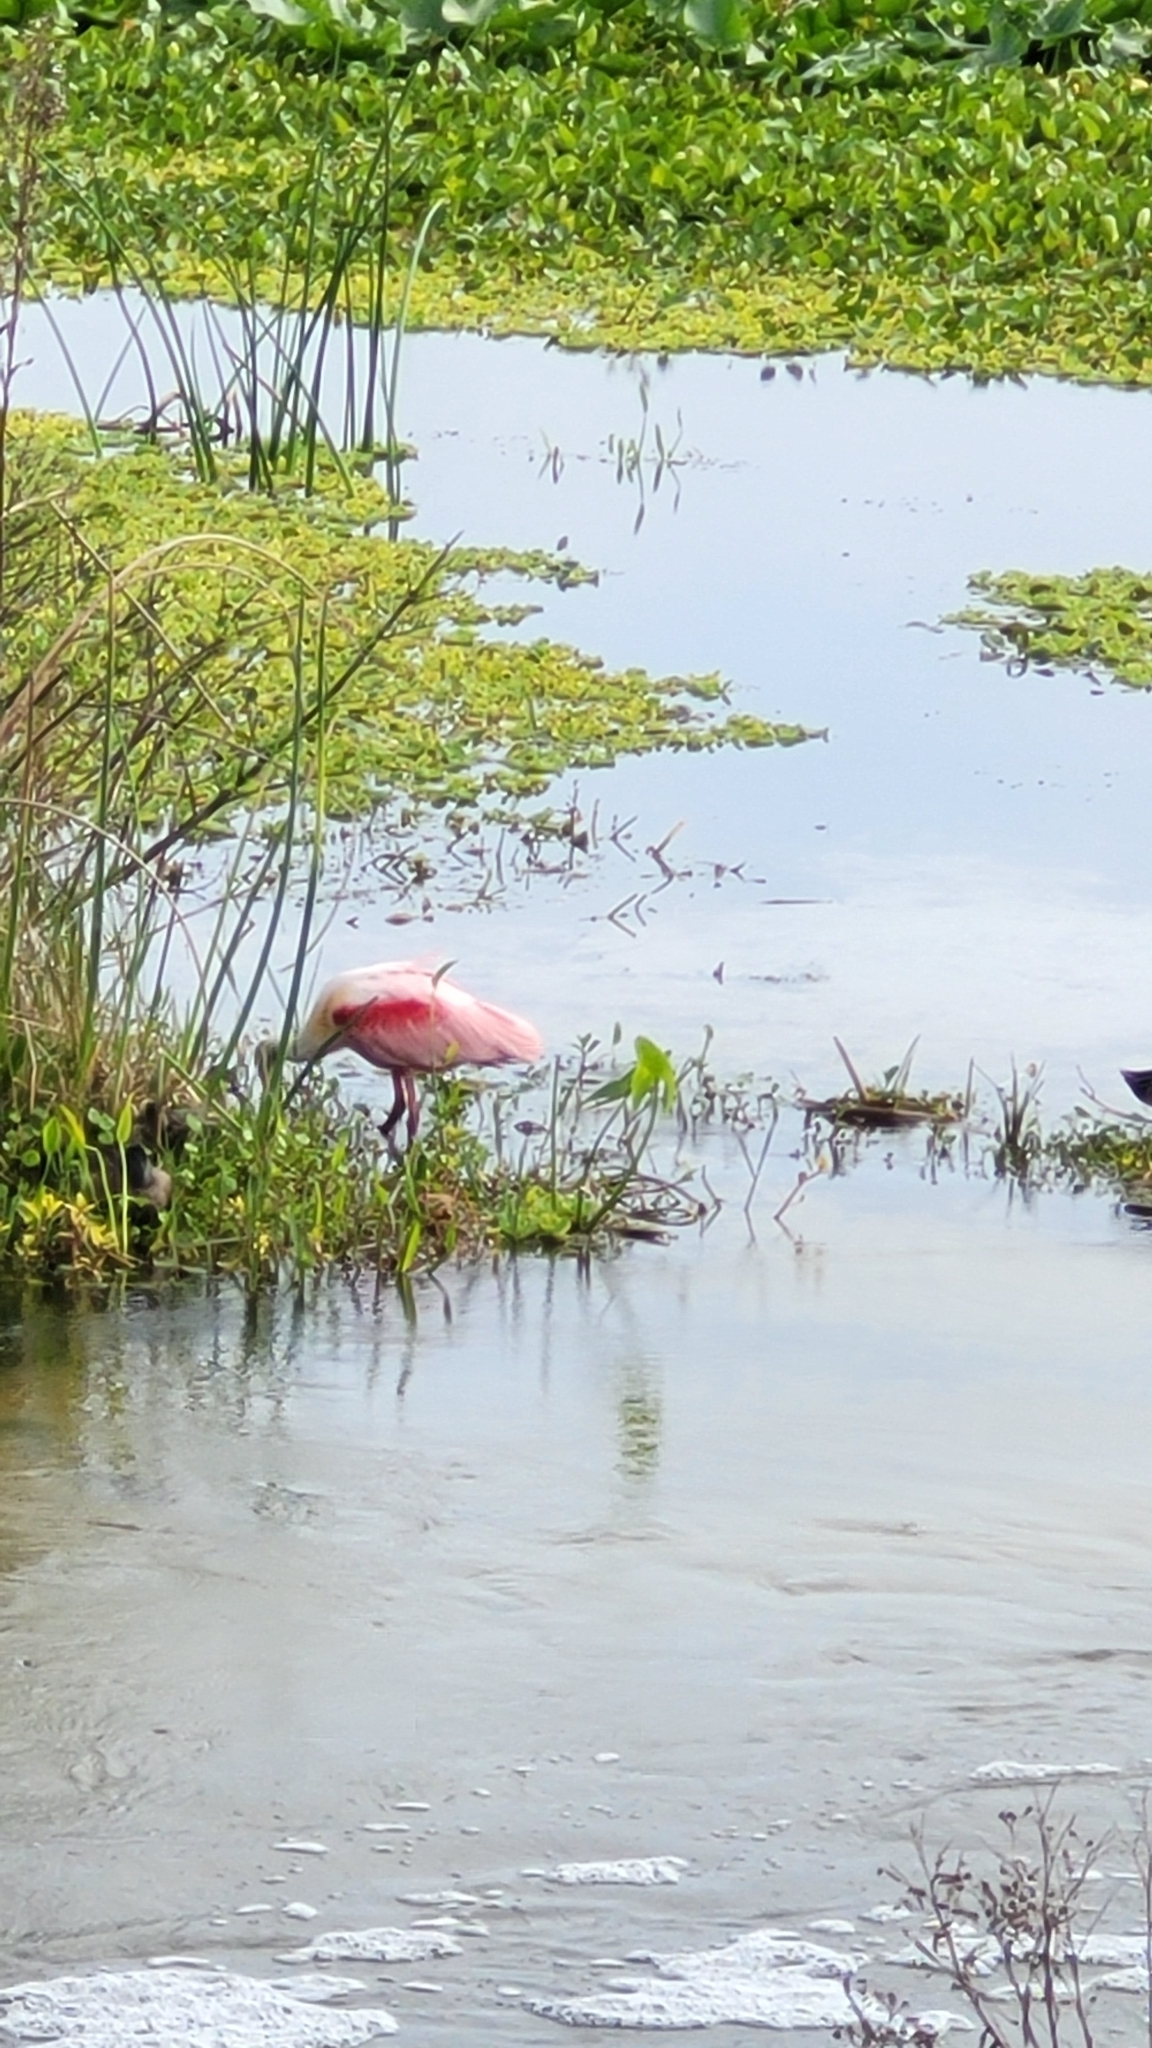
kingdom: Animalia
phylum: Chordata
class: Aves
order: Pelecaniformes
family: Threskiornithidae
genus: Platalea
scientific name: Platalea ajaja
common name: Roseate spoonbill
